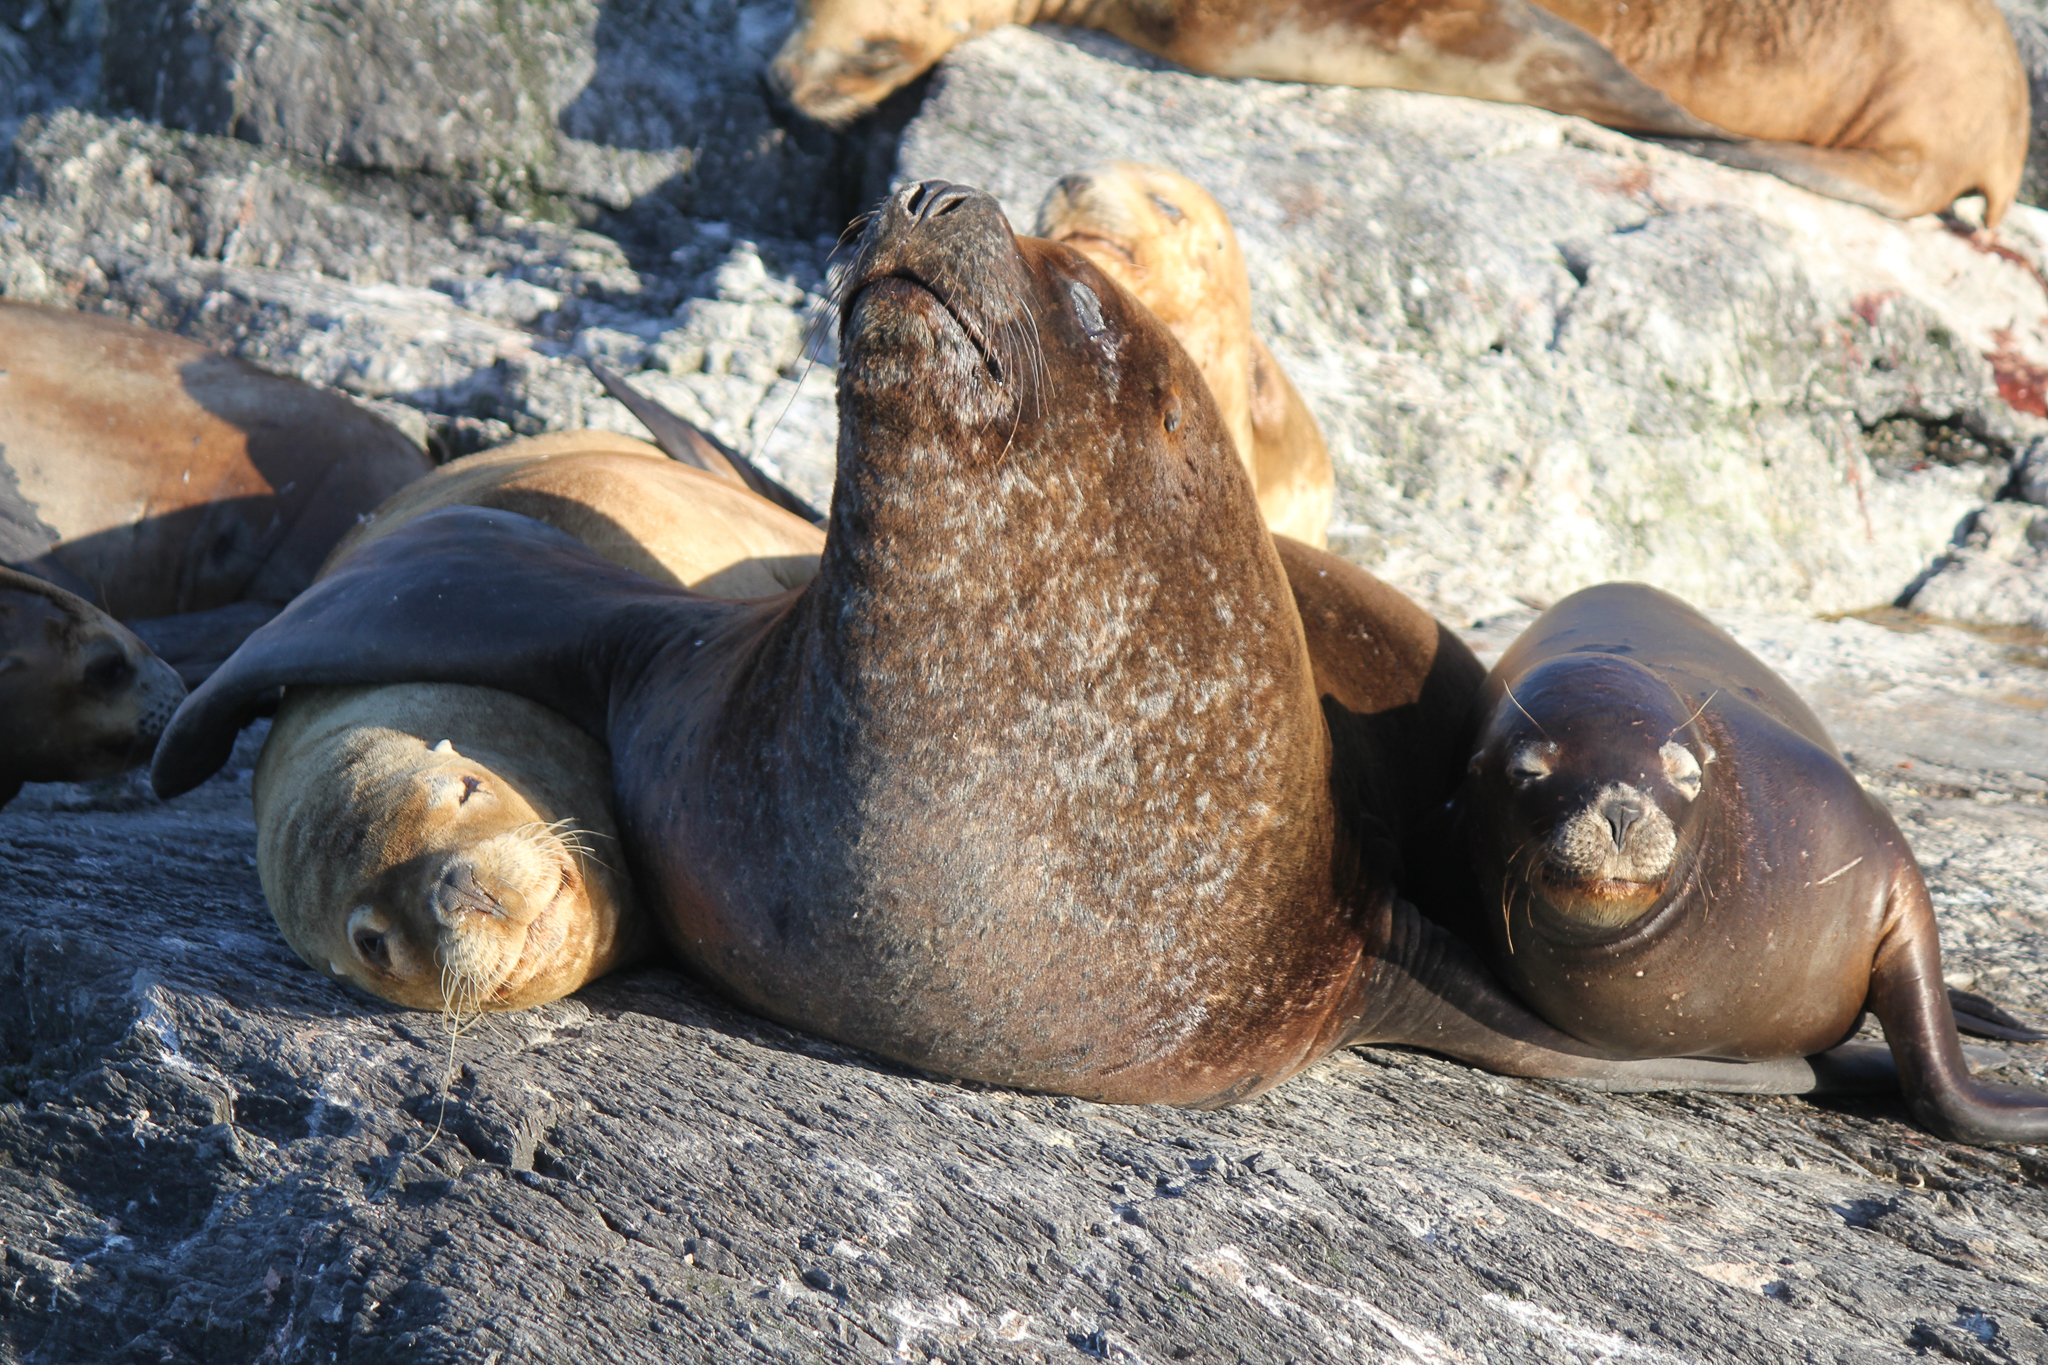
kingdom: Animalia
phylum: Chordata
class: Mammalia
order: Carnivora
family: Otariidae
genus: Otaria
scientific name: Otaria byronia
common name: South american sea lion
